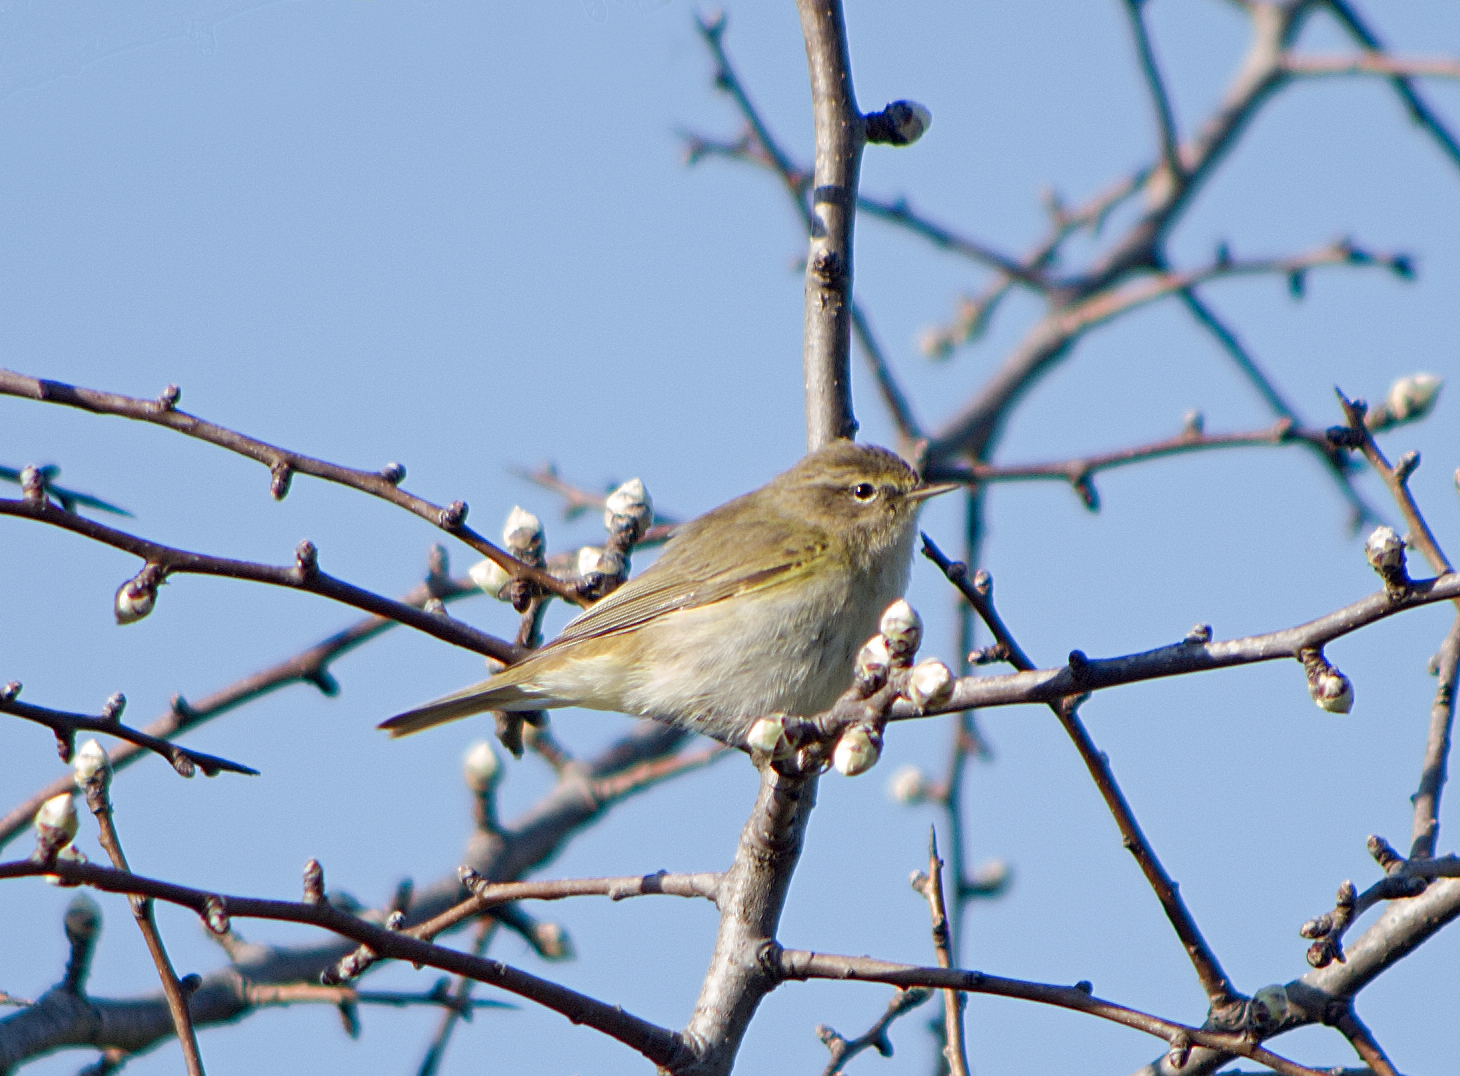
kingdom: Animalia
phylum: Chordata
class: Aves
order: Passeriformes
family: Phylloscopidae
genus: Phylloscopus
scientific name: Phylloscopus collybita
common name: Common chiffchaff
